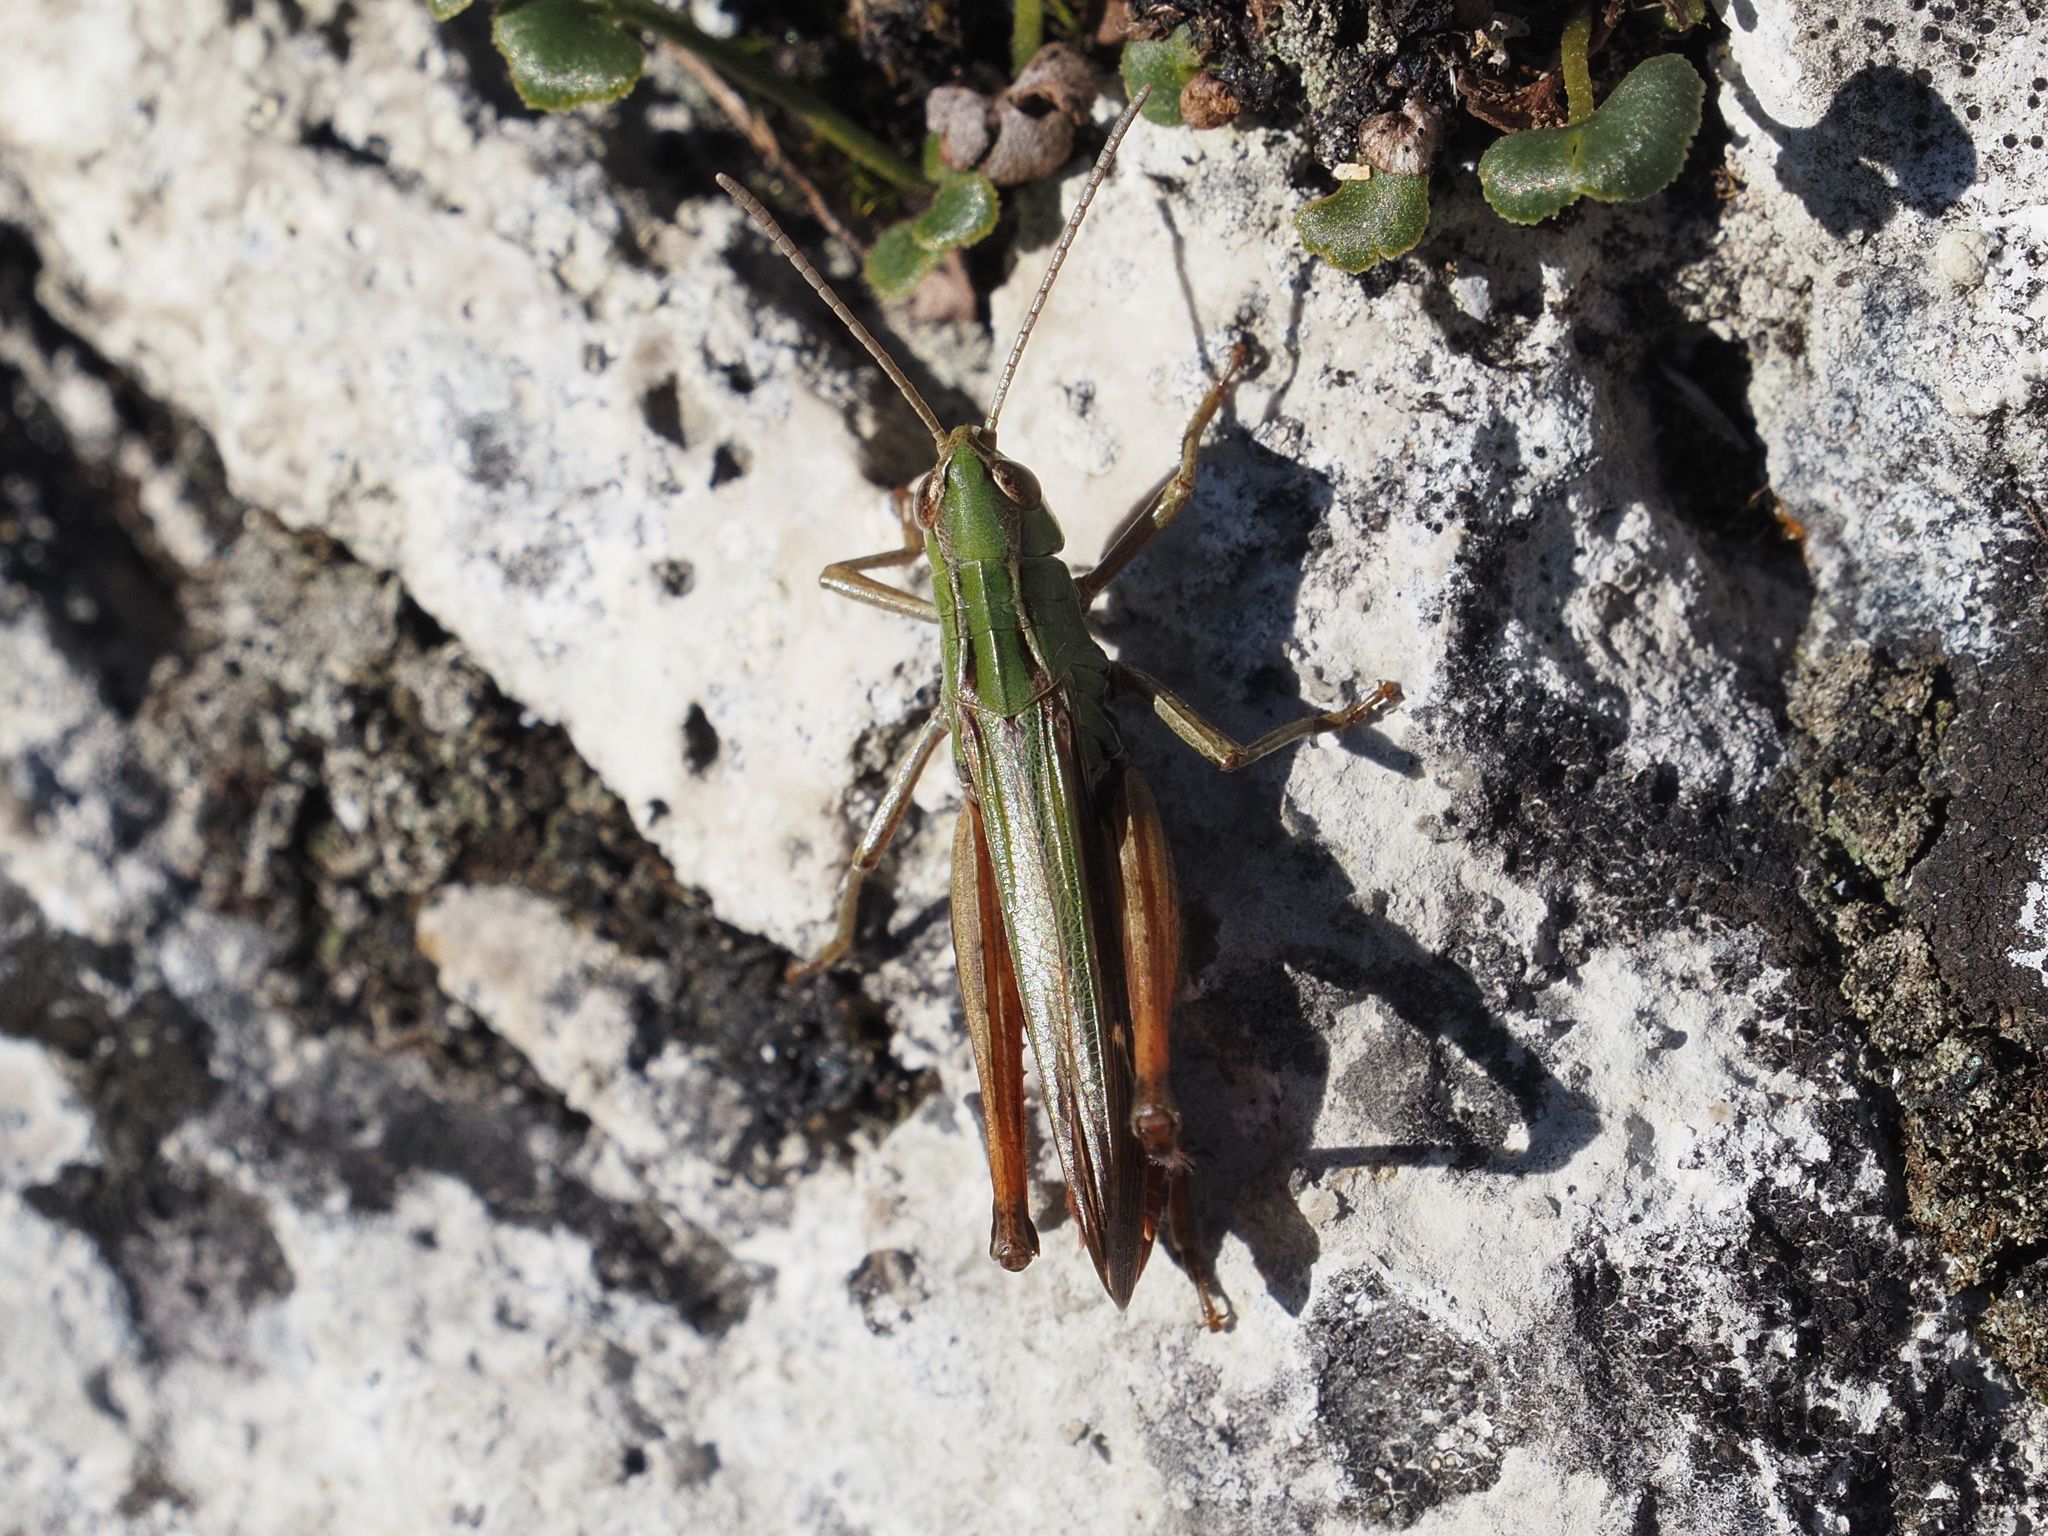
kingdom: Animalia
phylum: Arthropoda
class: Insecta
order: Orthoptera
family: Acrididae
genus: Stenobothrus
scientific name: Stenobothrus lineatus
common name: Stripe-winged grasshopper
